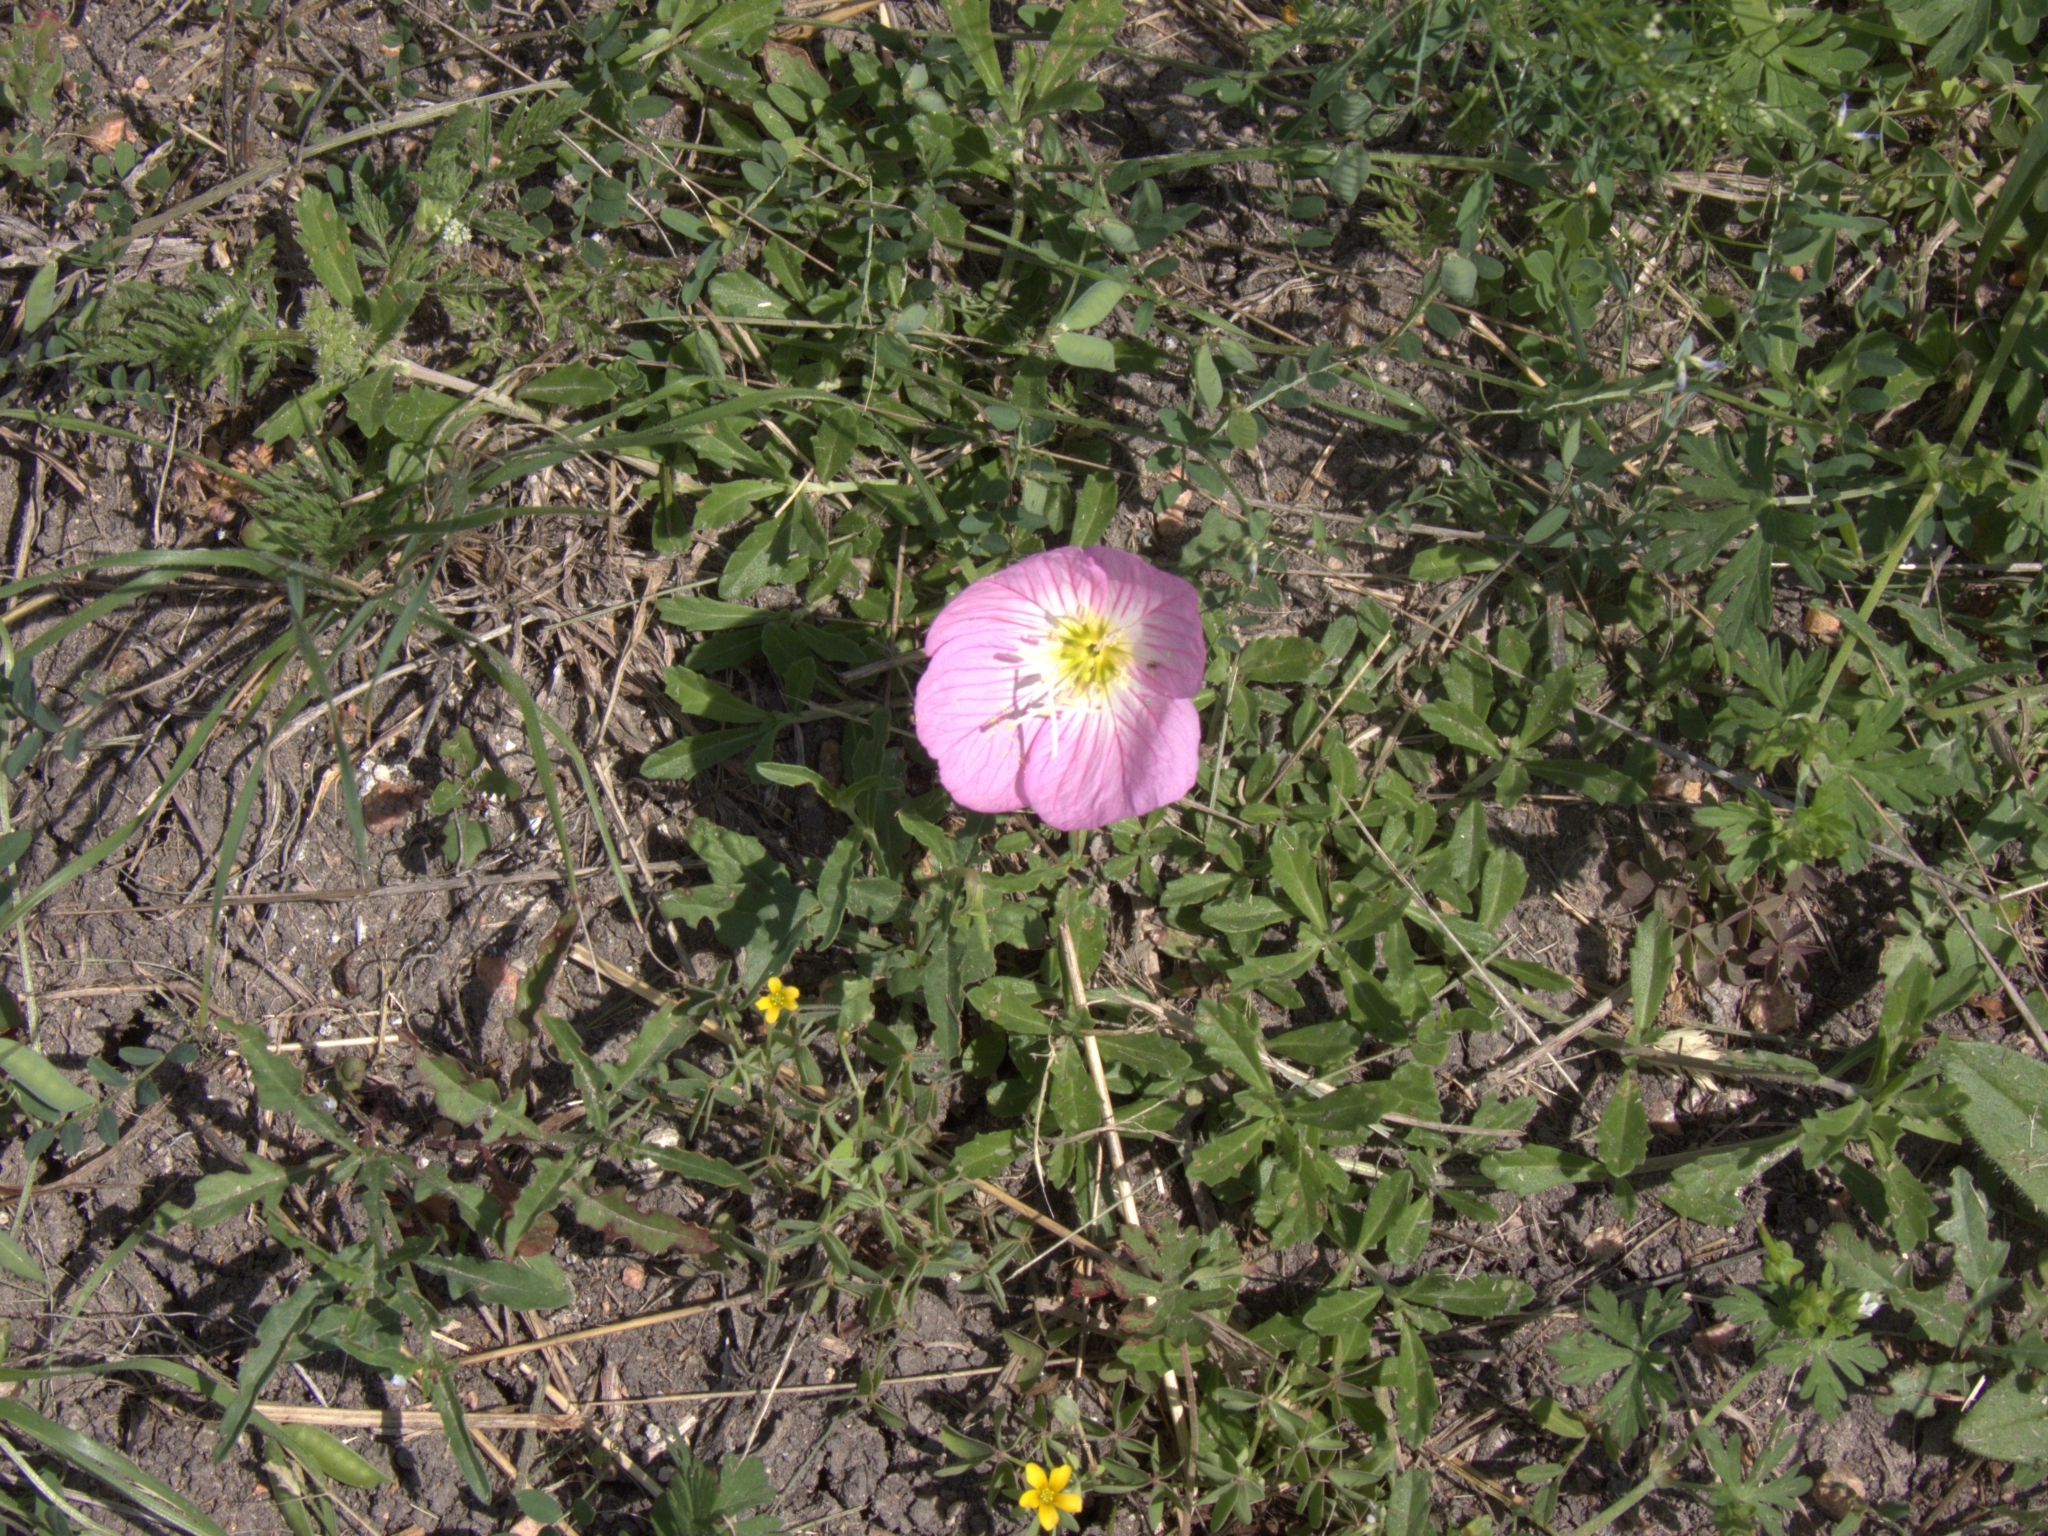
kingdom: Plantae
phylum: Tracheophyta
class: Magnoliopsida
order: Myrtales
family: Onagraceae
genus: Oenothera
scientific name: Oenothera speciosa
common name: White evening-primrose
